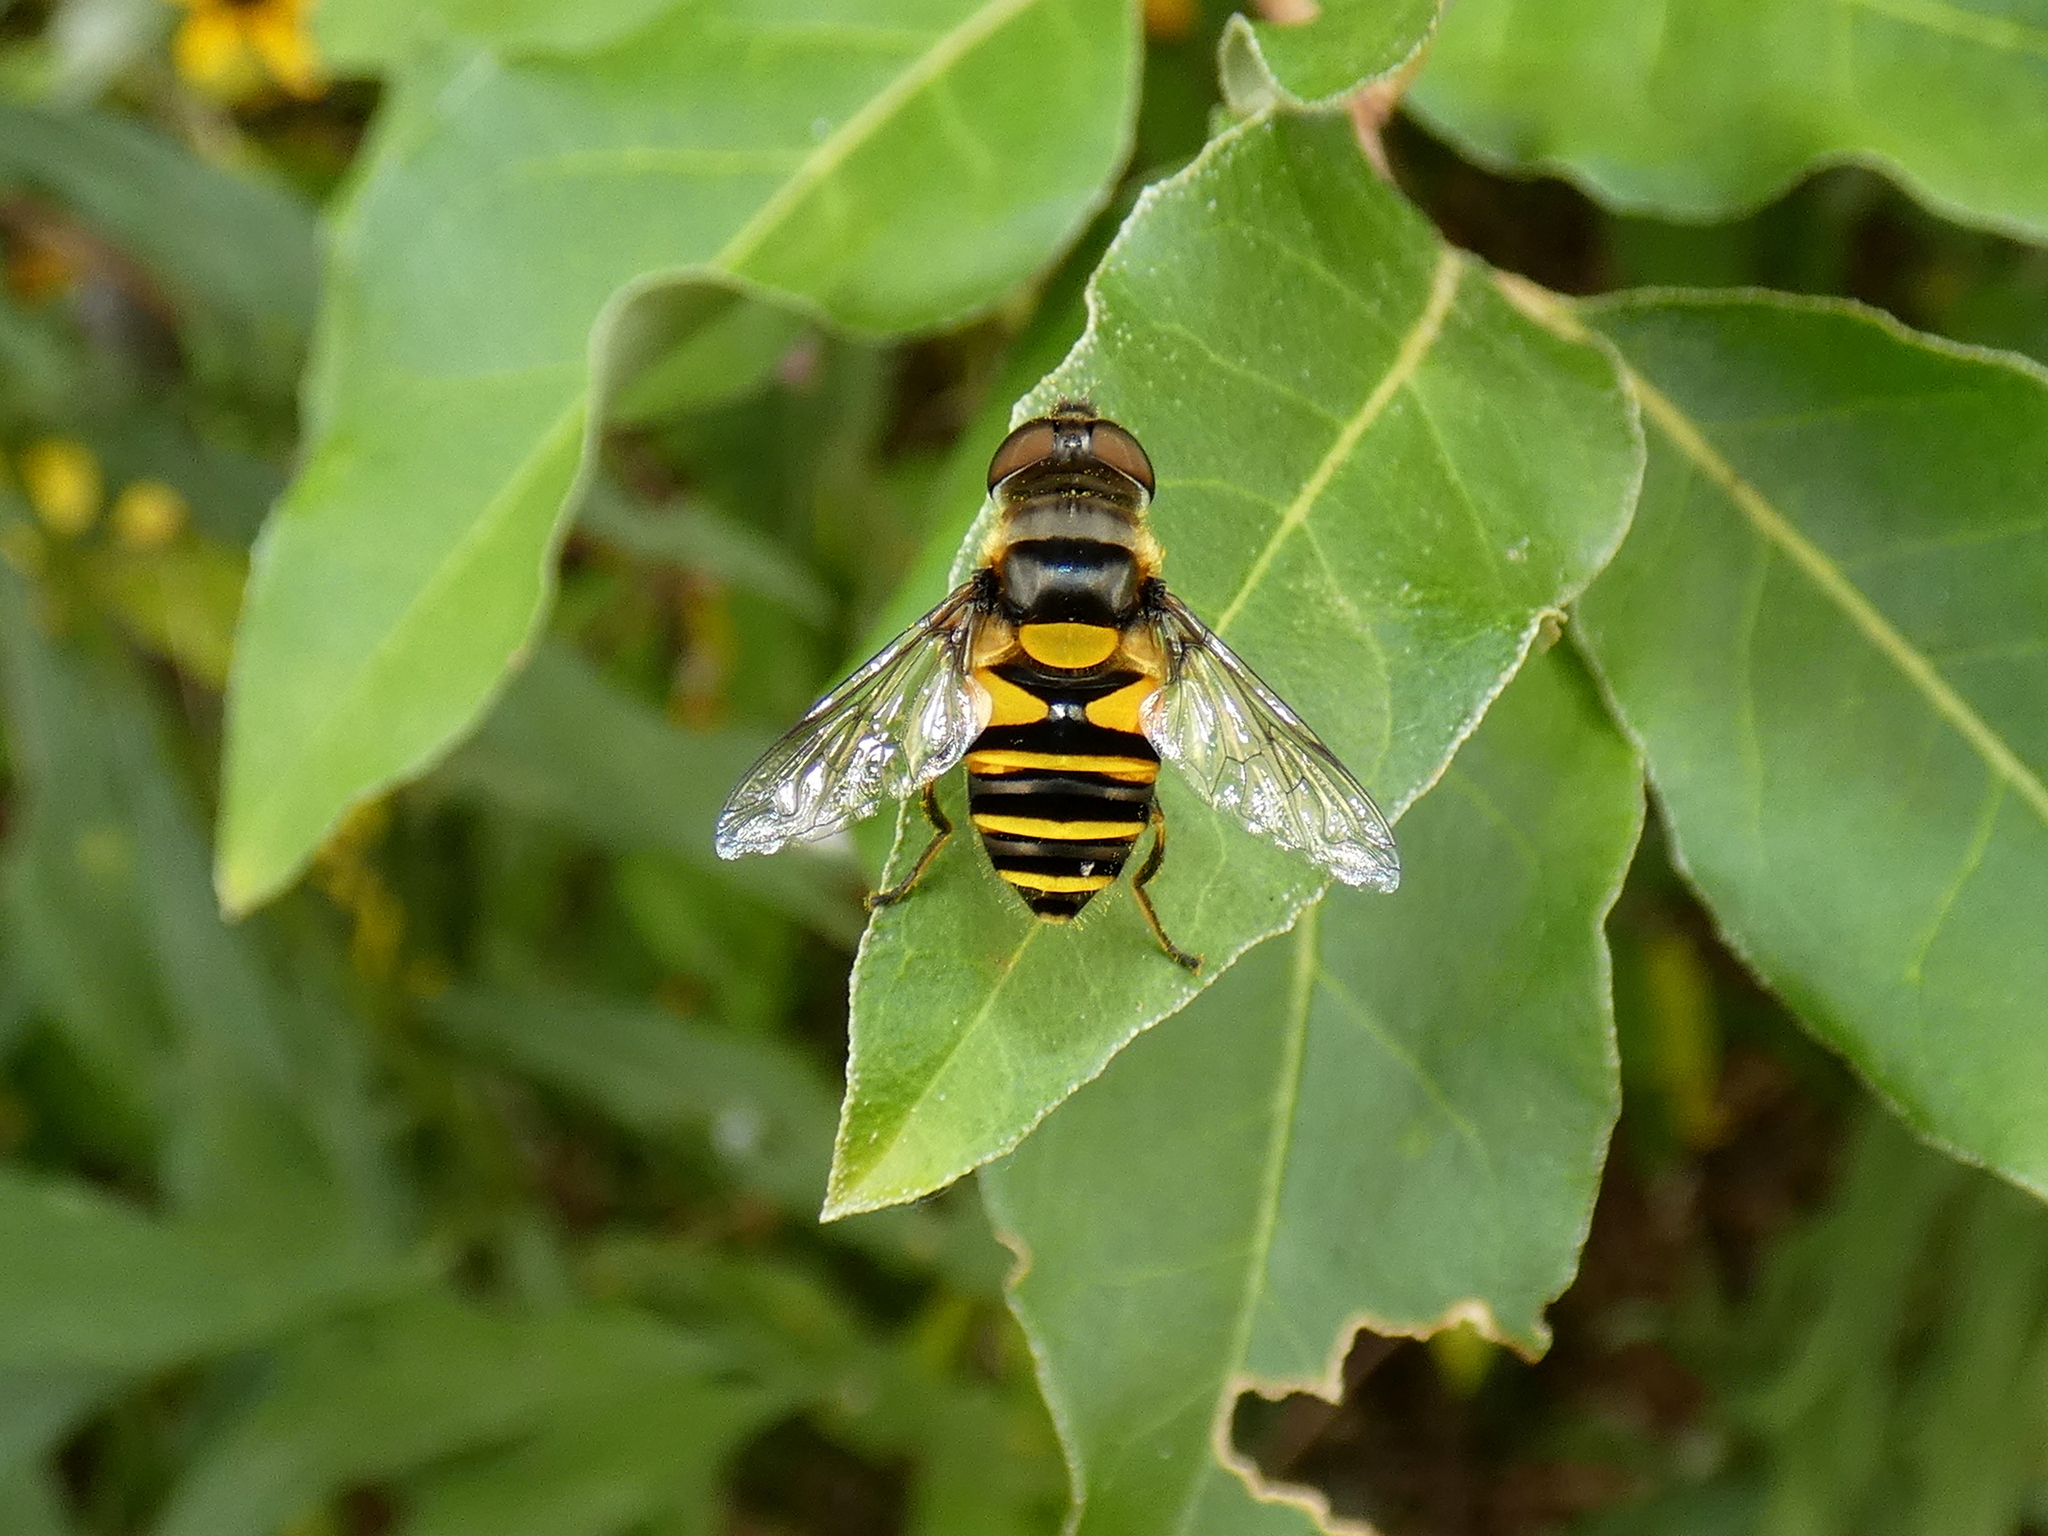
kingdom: Animalia
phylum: Arthropoda
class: Insecta
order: Diptera
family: Syrphidae
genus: Eristalis
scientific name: Eristalis transversa
